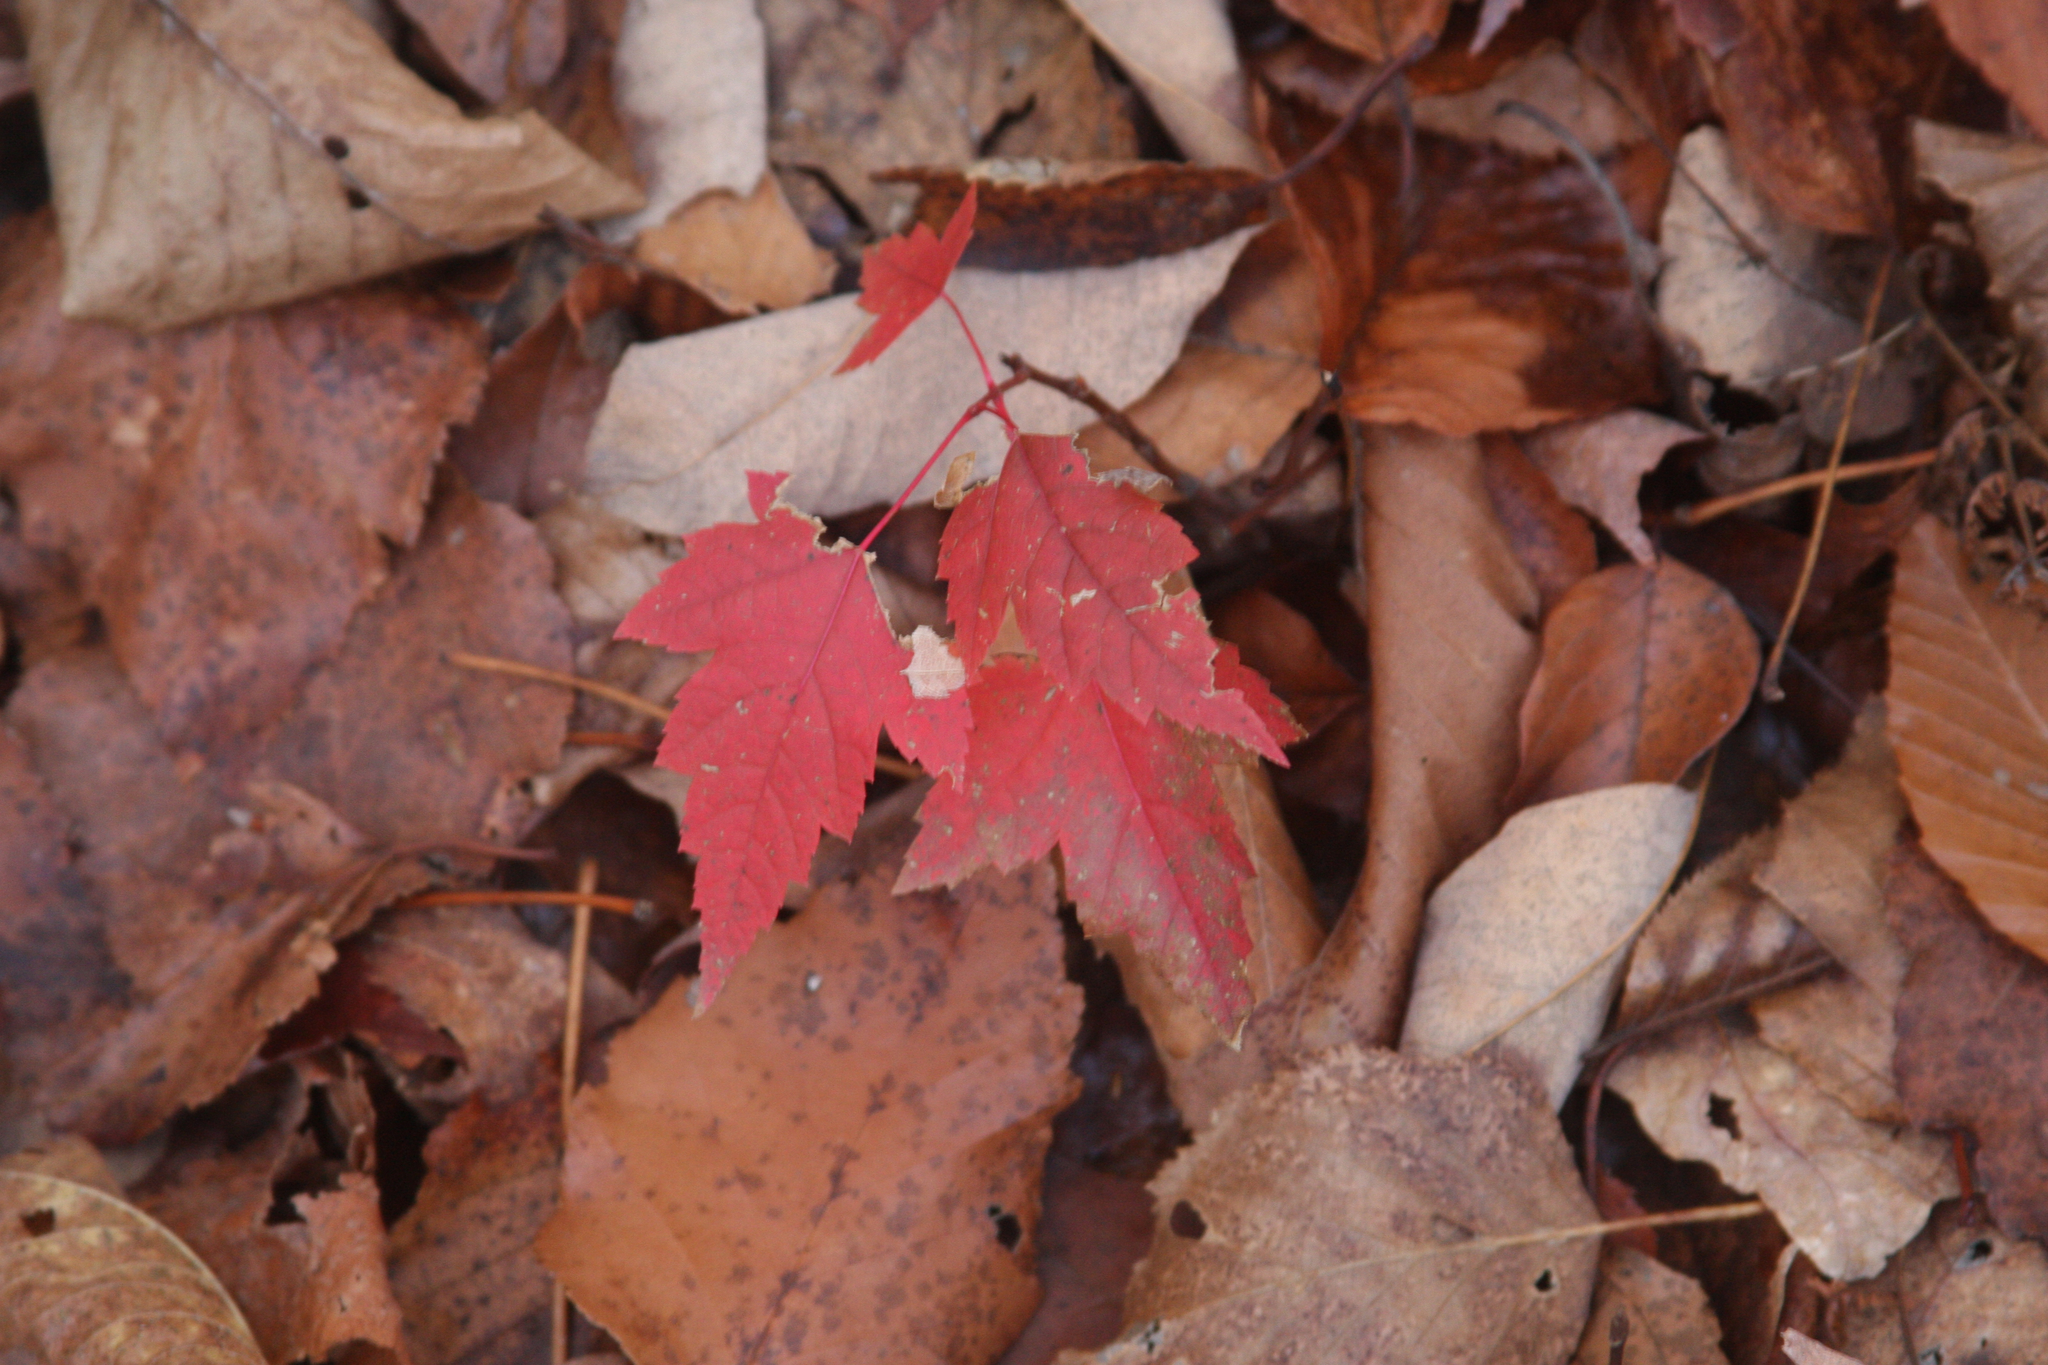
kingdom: Plantae
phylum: Tracheophyta
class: Magnoliopsida
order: Sapindales
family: Sapindaceae
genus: Acer
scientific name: Acer rubrum
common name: Red maple
